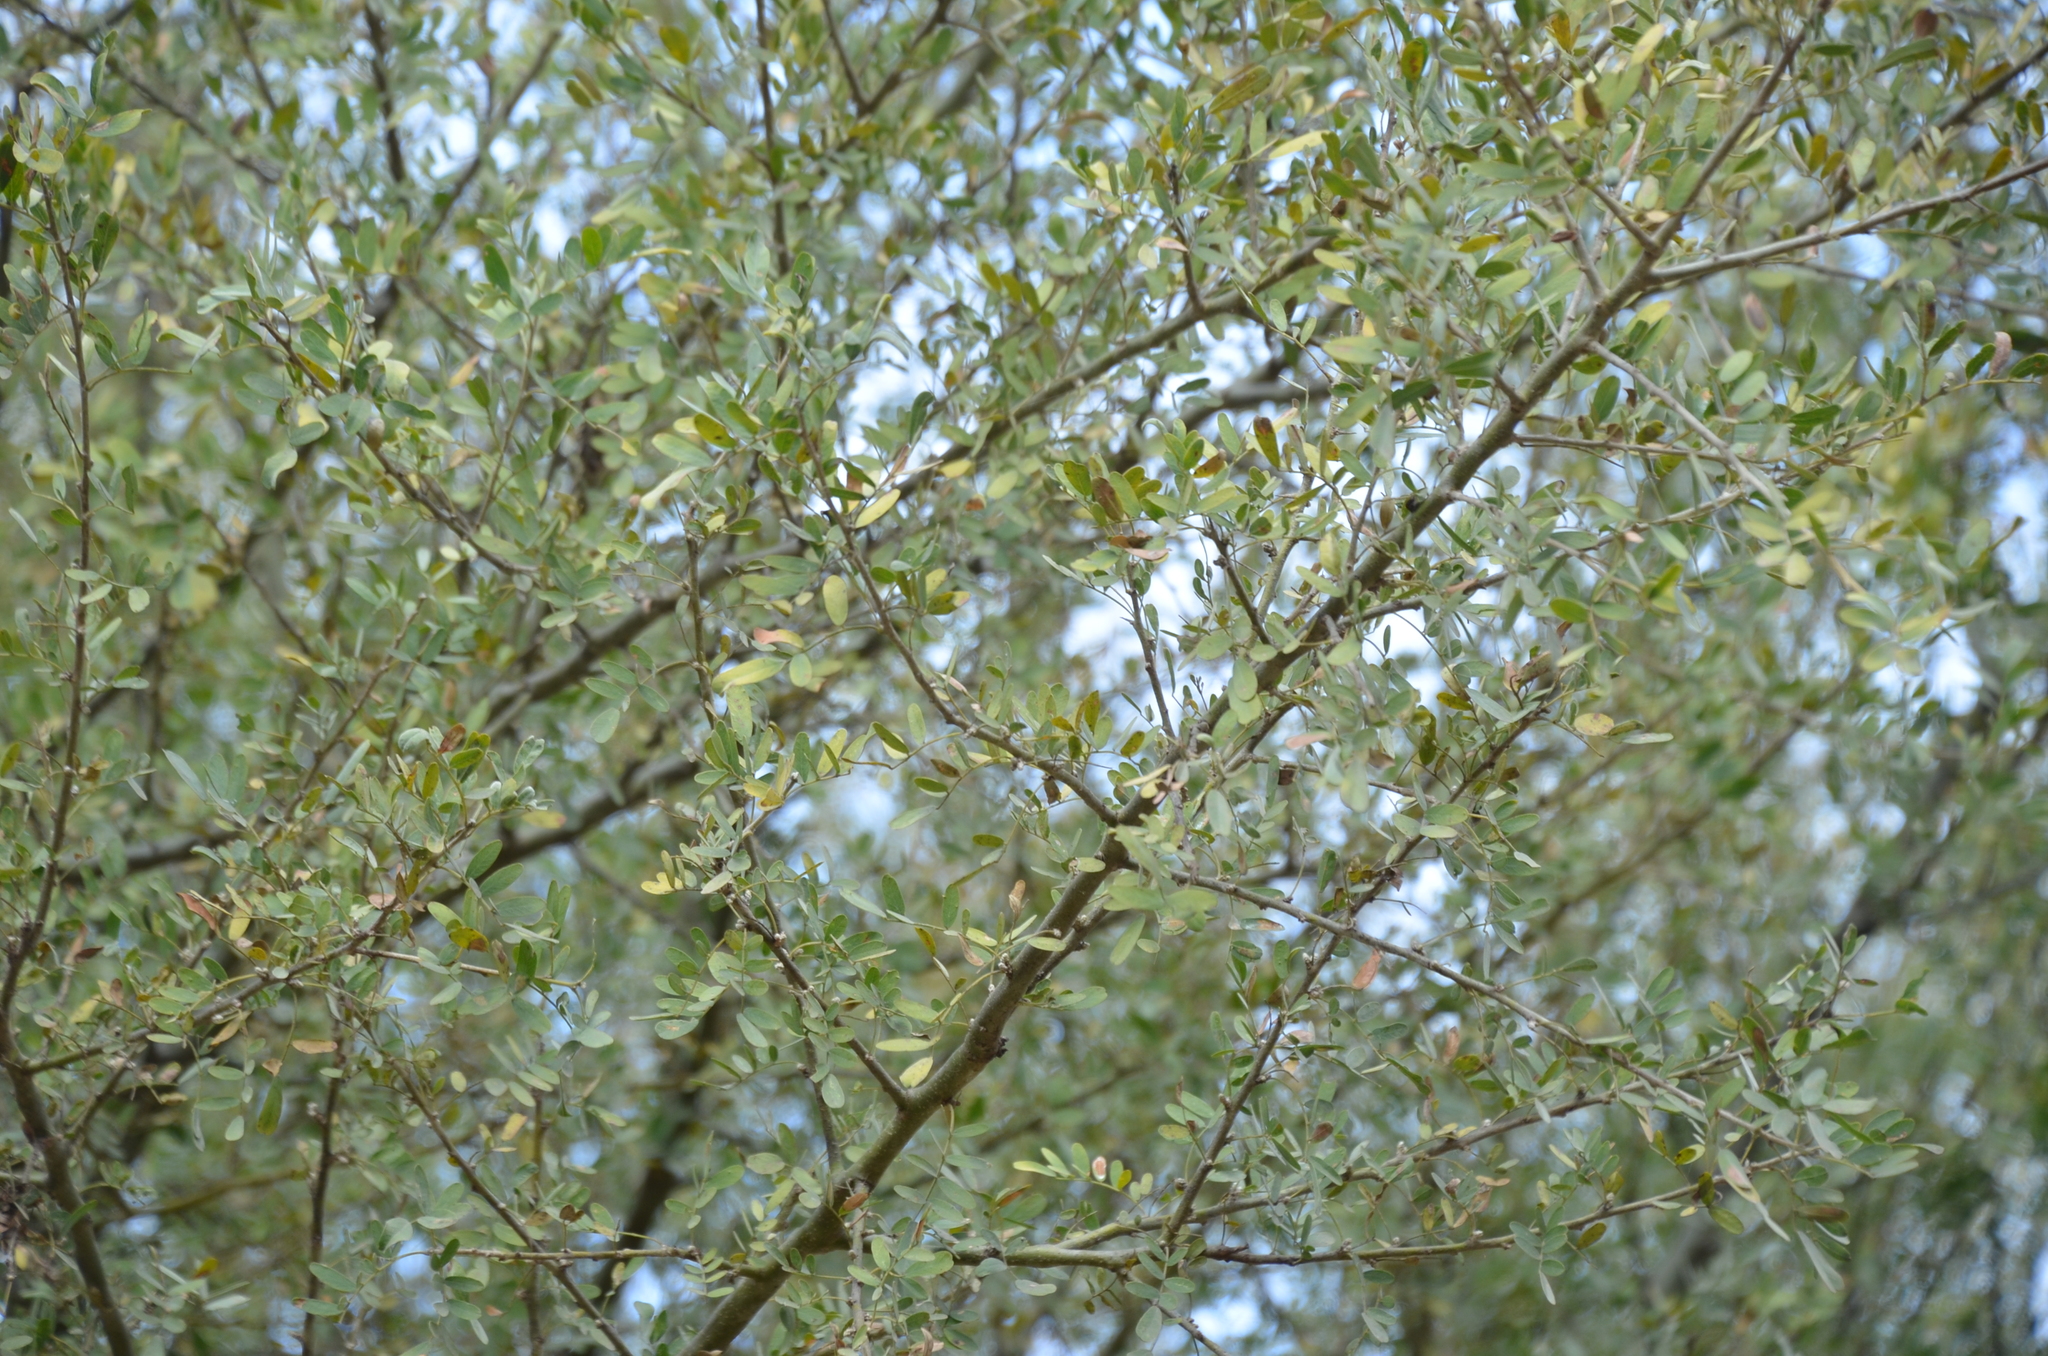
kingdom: Plantae
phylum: Tracheophyta
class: Magnoliopsida
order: Fabales
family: Fabaceae
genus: Geoffroea
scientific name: Geoffroea decorticans
